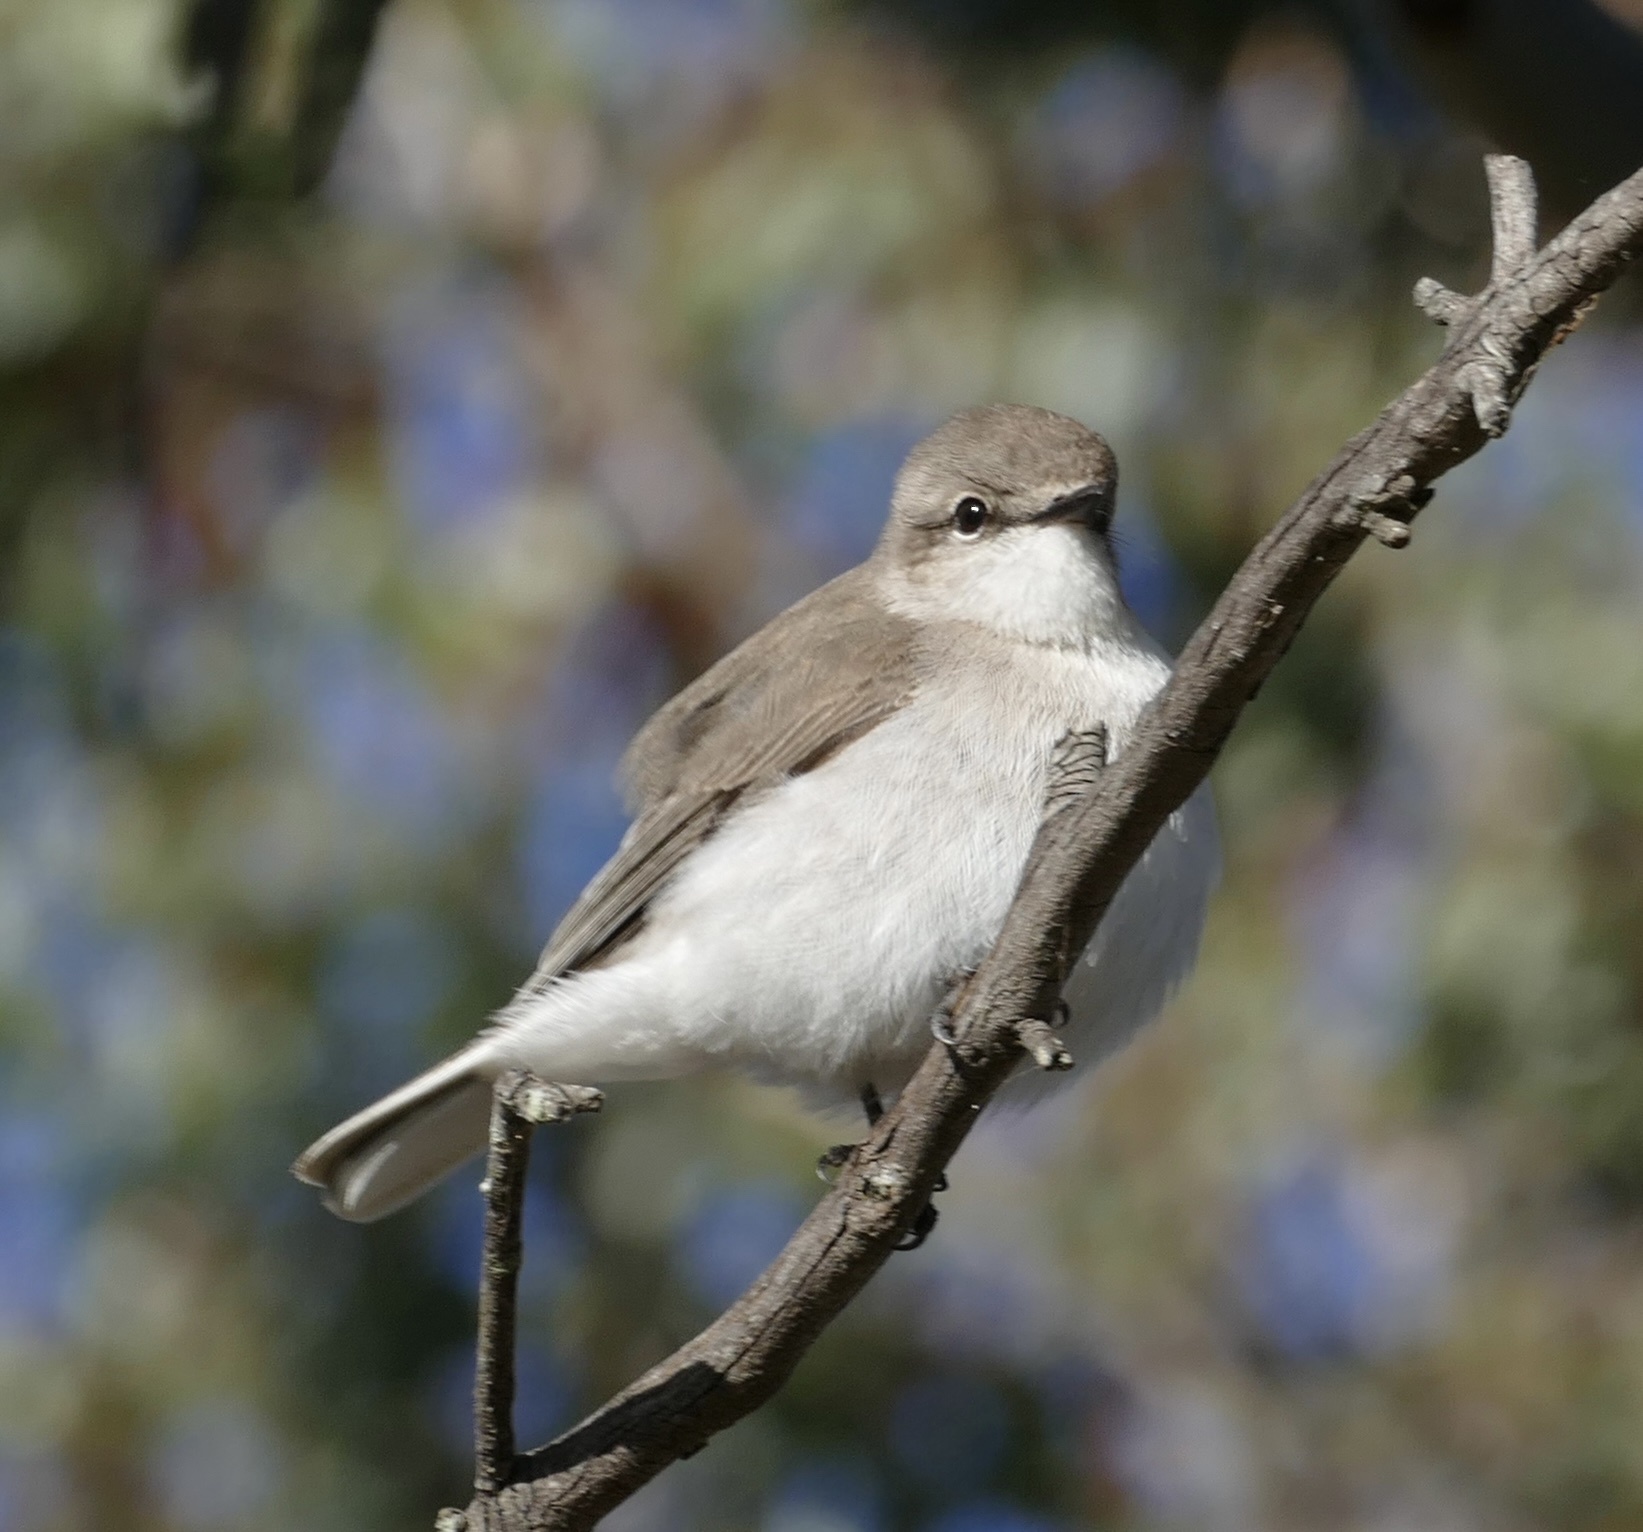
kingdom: Animalia
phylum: Chordata
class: Aves
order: Passeriformes
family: Petroicidae
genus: Microeca
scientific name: Microeca fascinans
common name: Jacky winter
